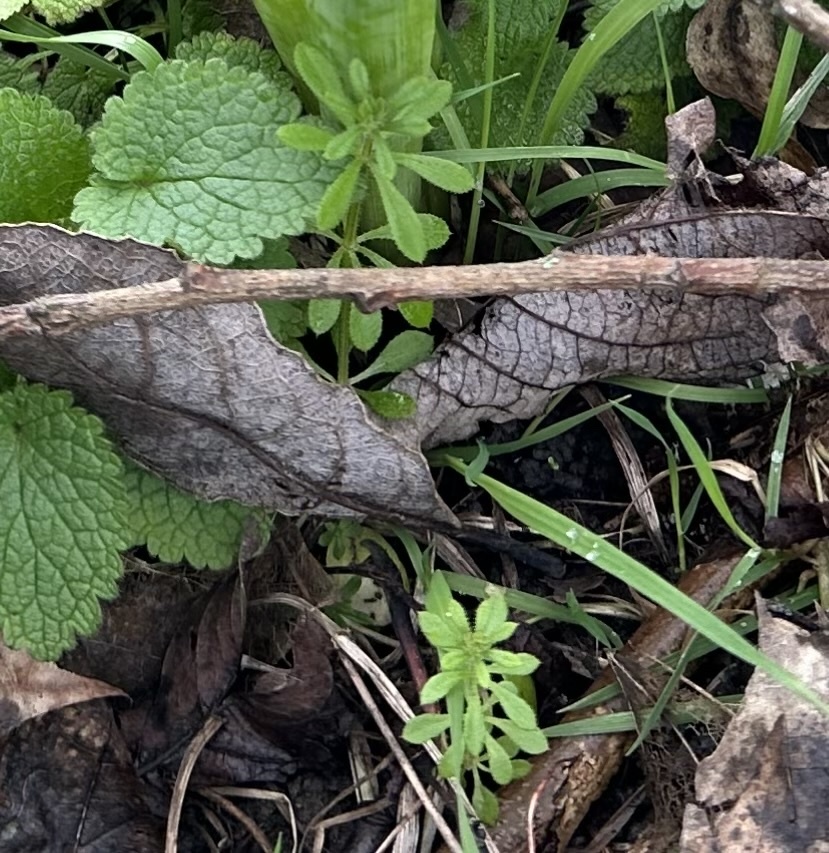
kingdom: Plantae
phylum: Tracheophyta
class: Magnoliopsida
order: Gentianales
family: Rubiaceae
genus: Galium
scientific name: Galium aparine
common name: Cleavers
